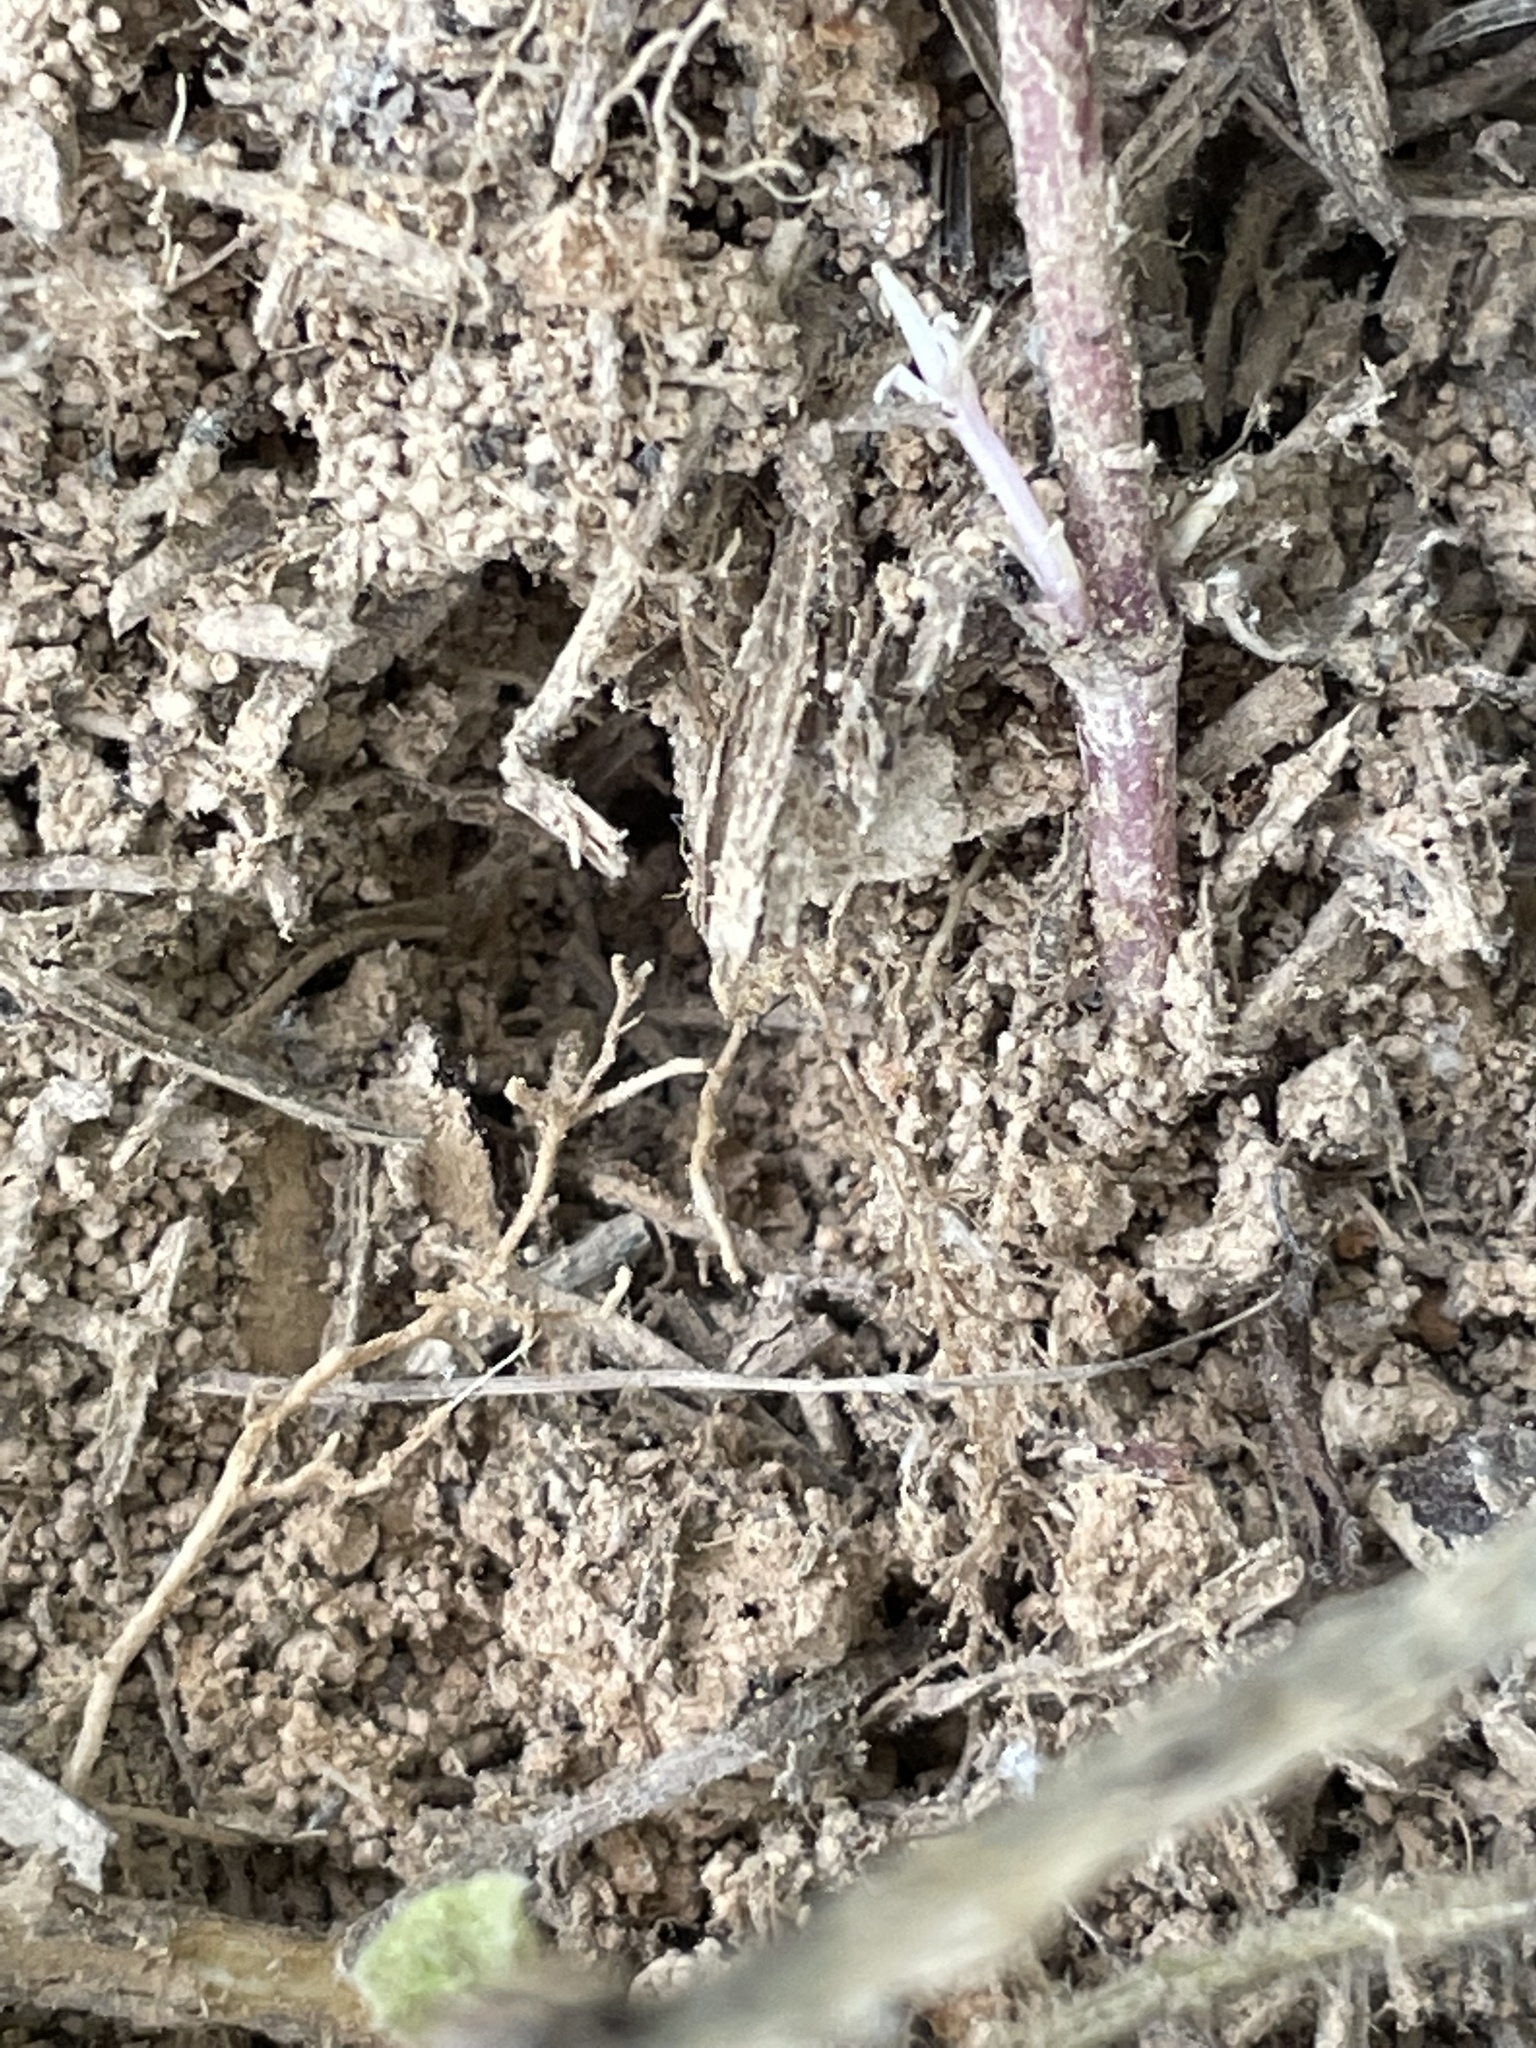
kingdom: Plantae
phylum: Tracheophyta
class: Magnoliopsida
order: Lamiales
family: Lamiaceae
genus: Clinopodium
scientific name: Clinopodium vulgare
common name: Wild basil
